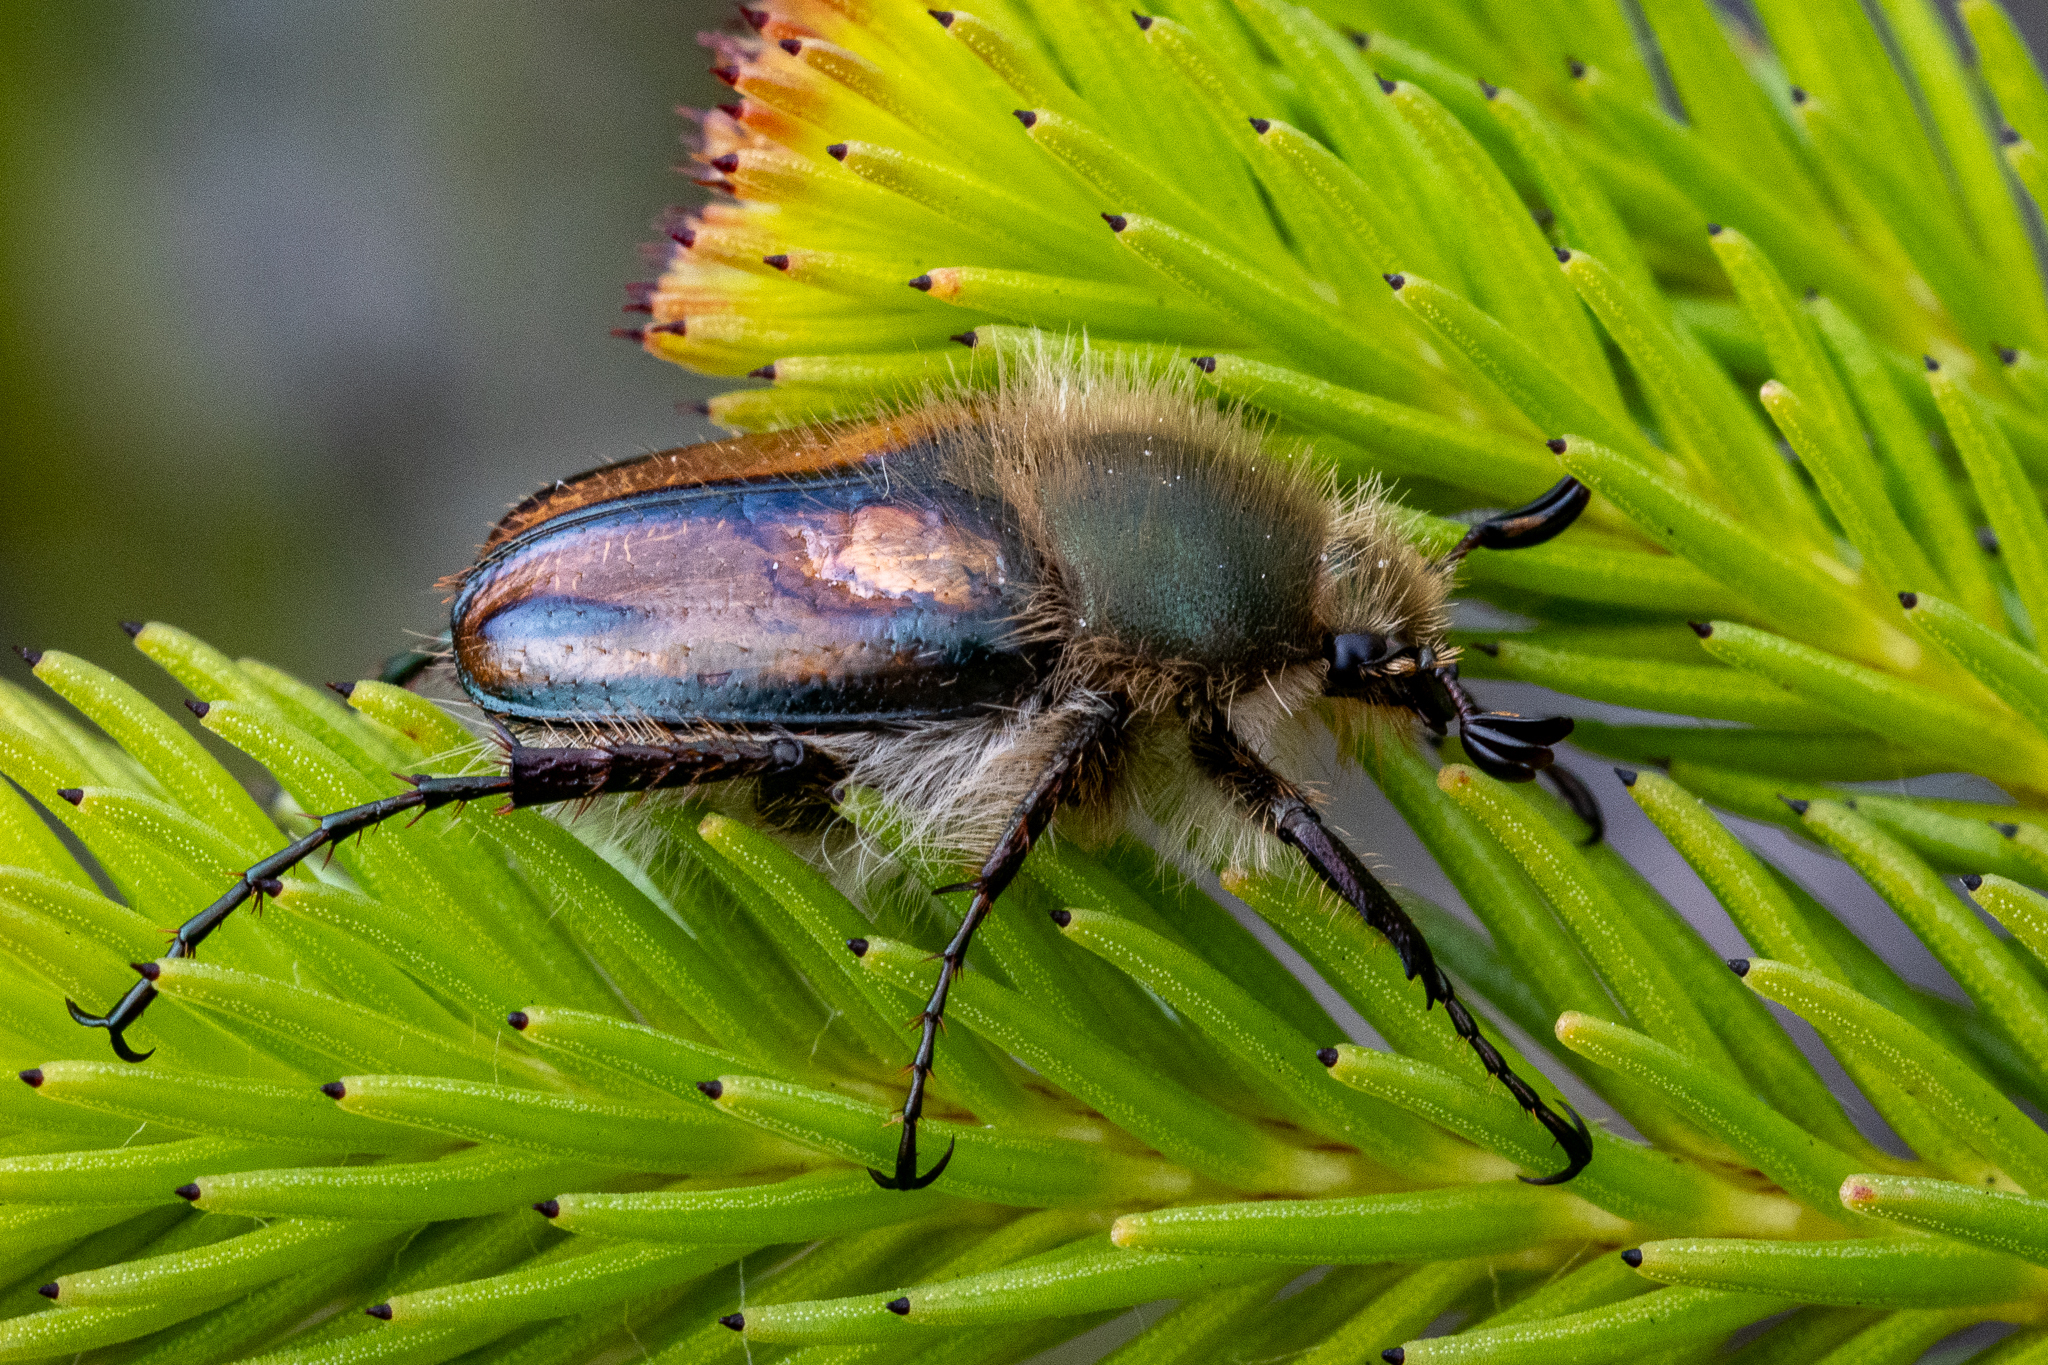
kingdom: Animalia
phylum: Arthropoda
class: Insecta
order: Coleoptera
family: Scarabaeidae
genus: Stegopterus
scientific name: Stegopterus vittatus
